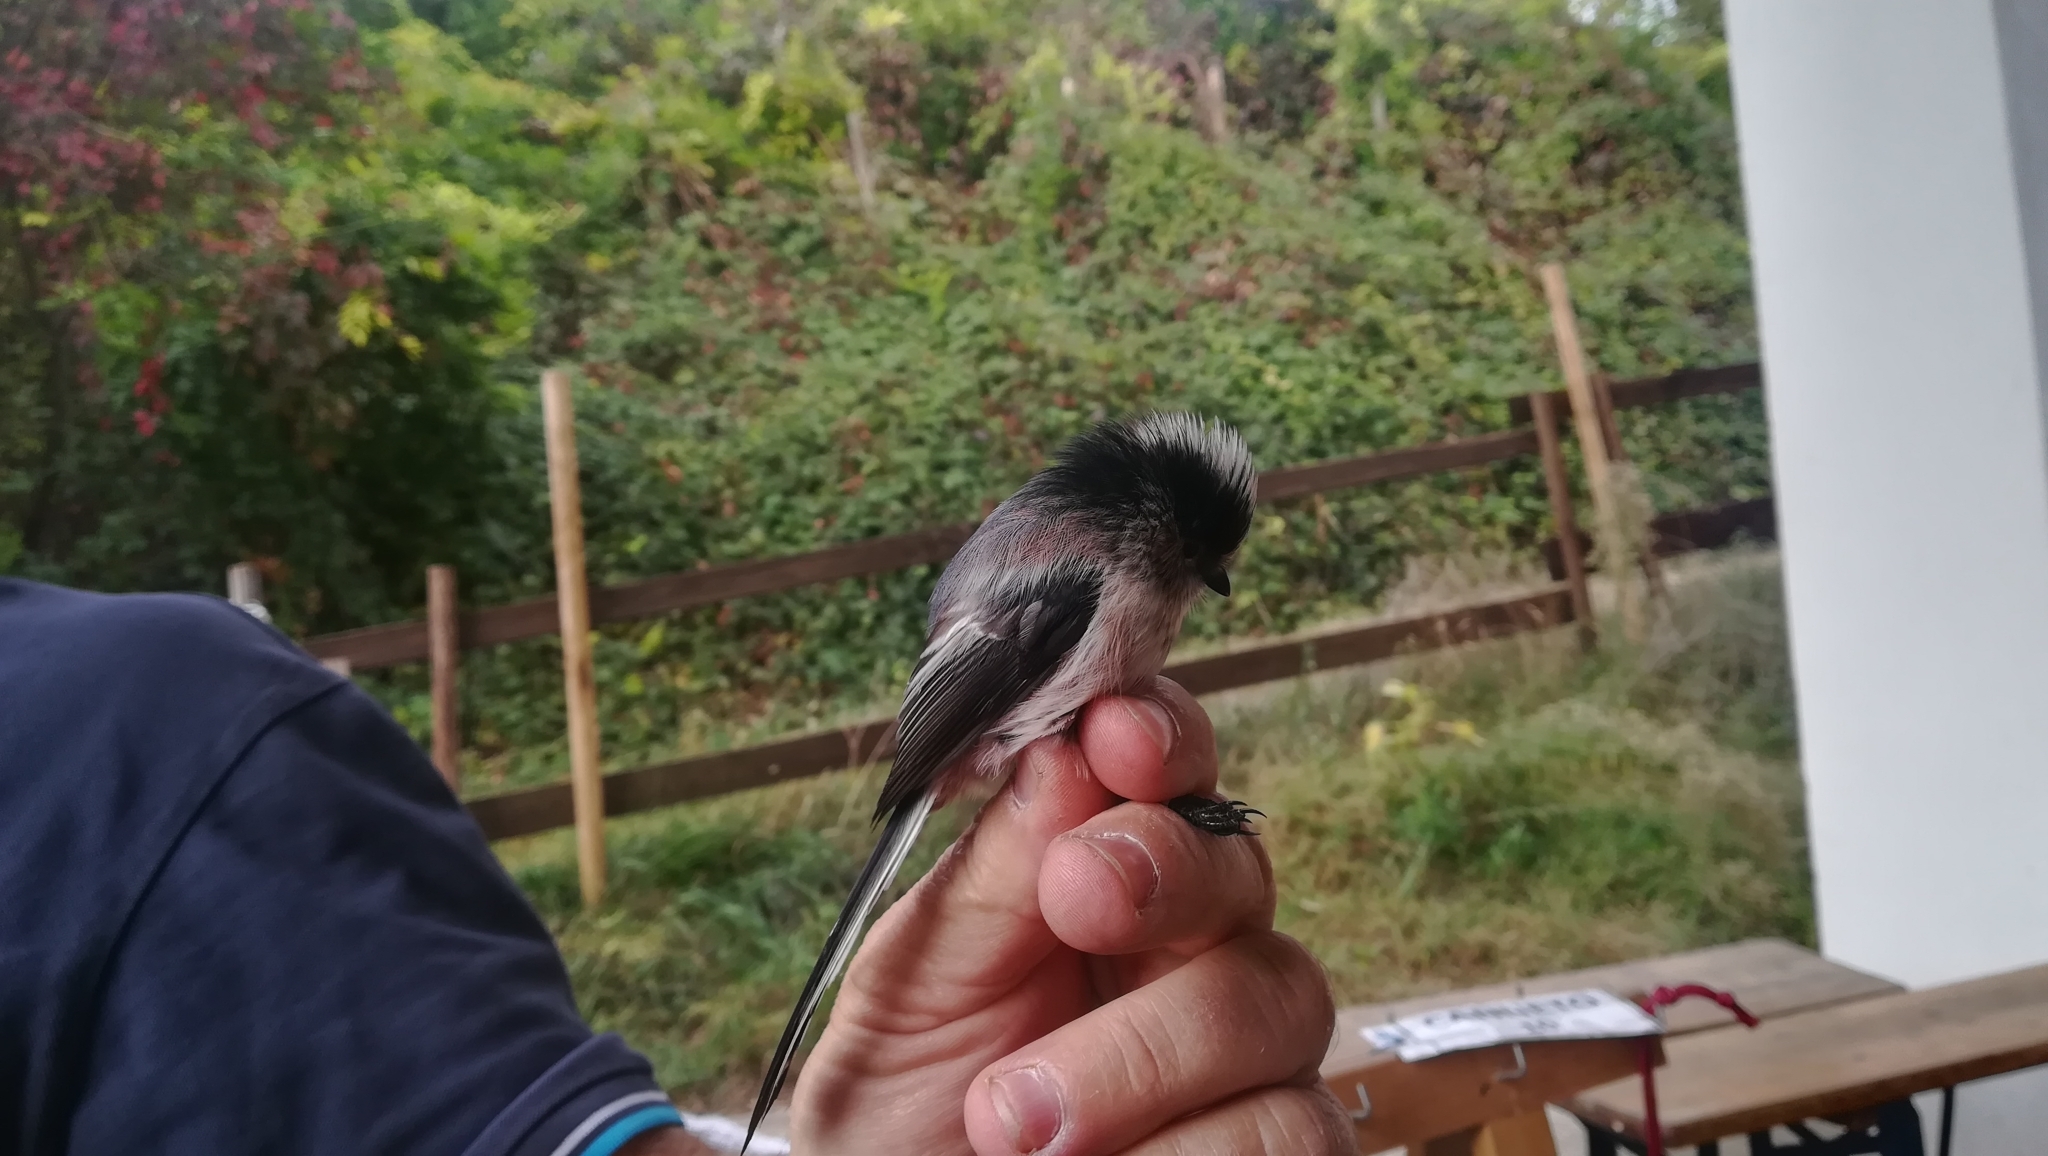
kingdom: Animalia
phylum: Chordata
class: Aves
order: Passeriformes
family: Aegithalidae
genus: Aegithalos
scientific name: Aegithalos caudatus
